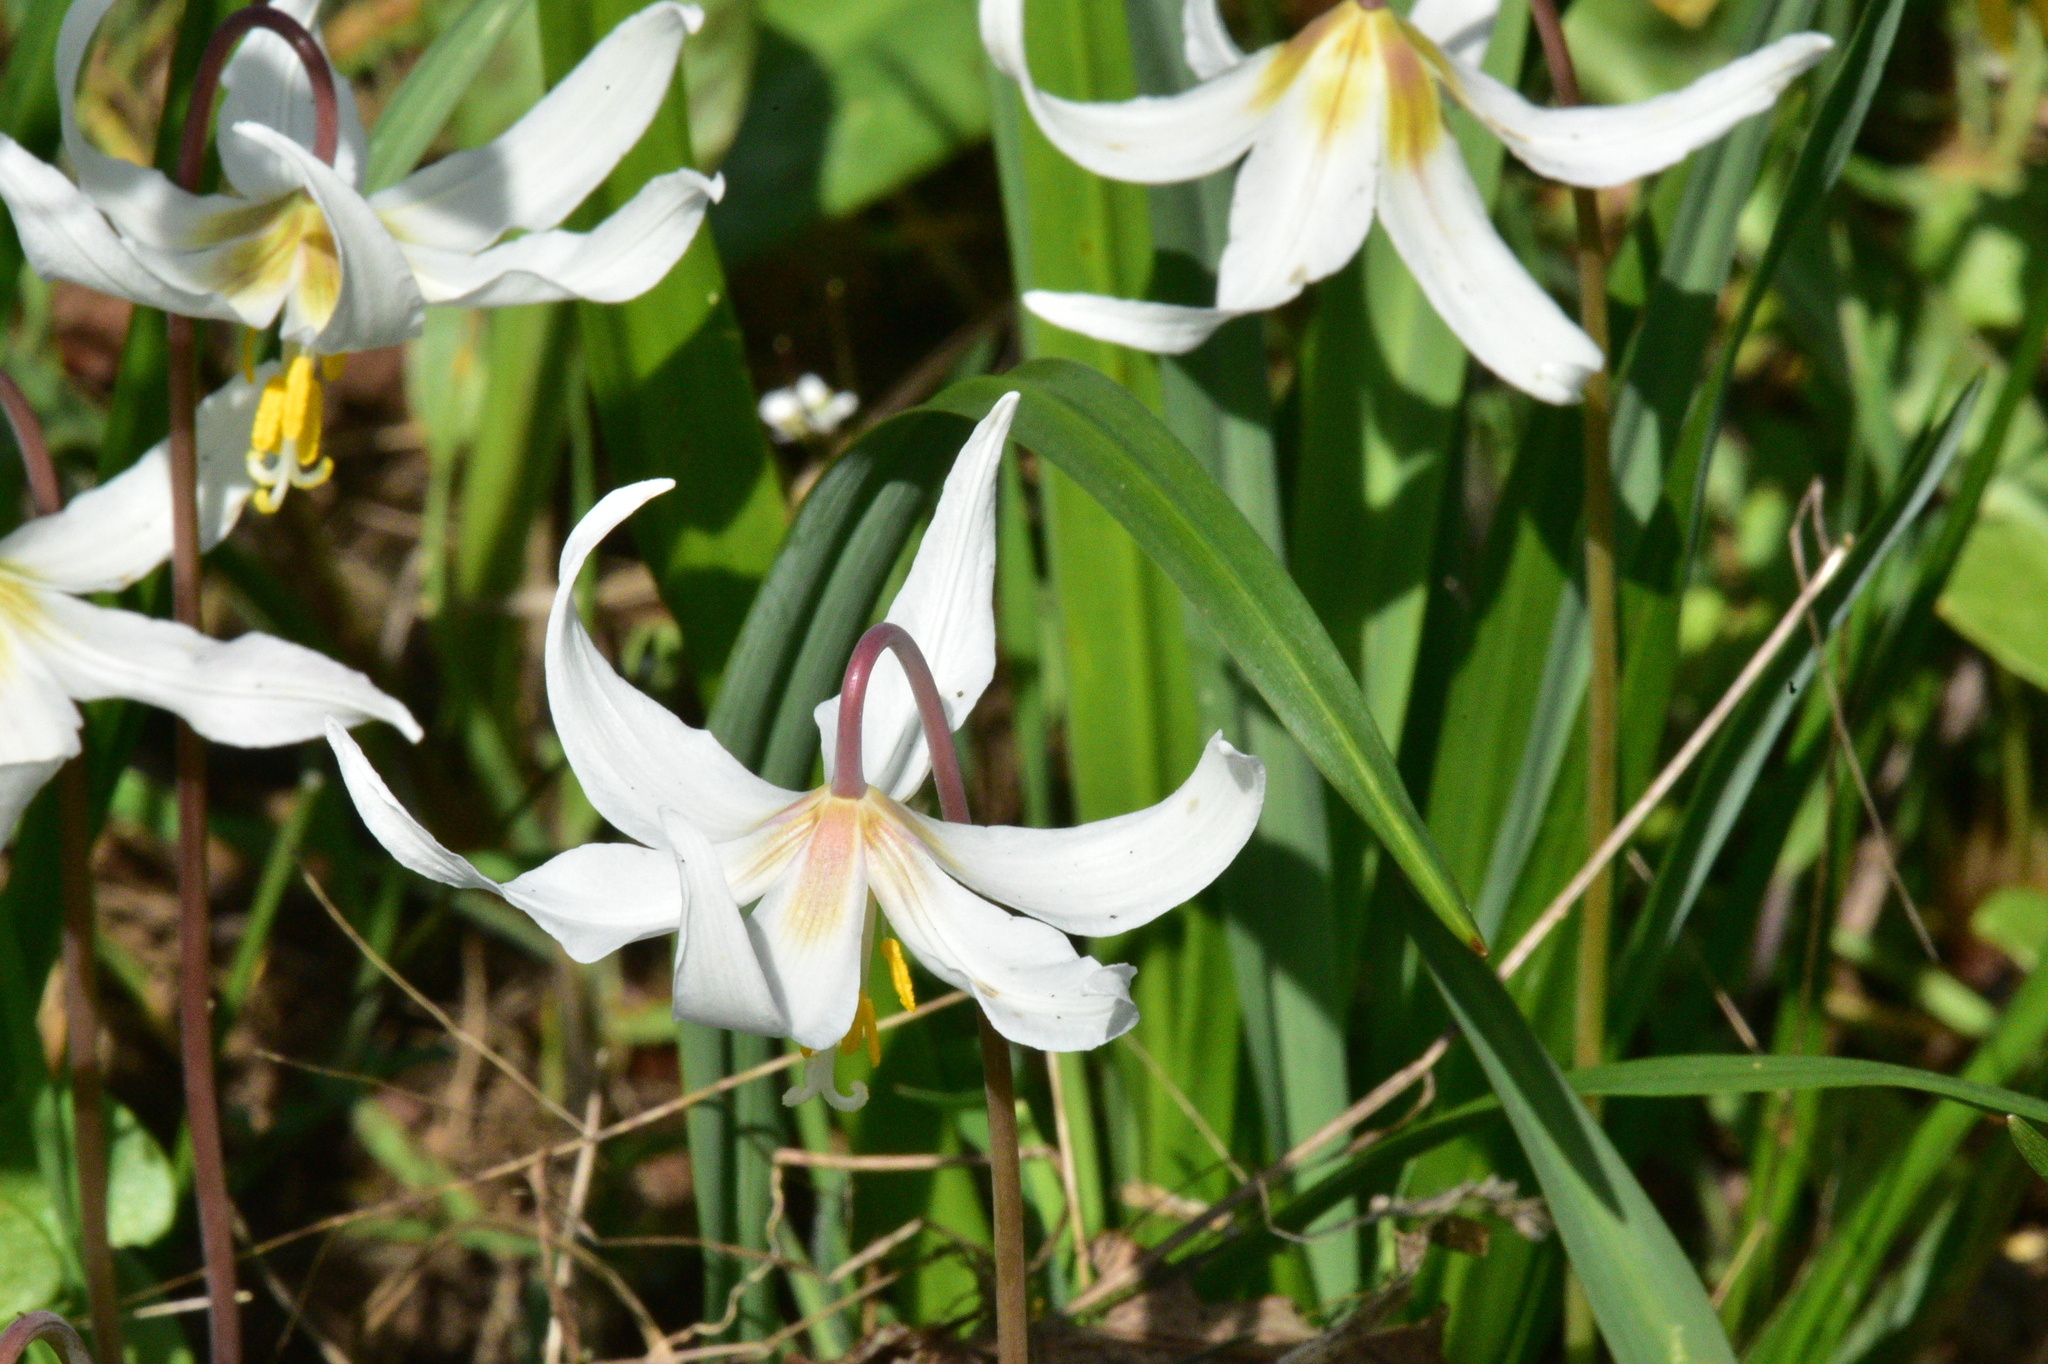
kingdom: Plantae
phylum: Tracheophyta
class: Liliopsida
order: Liliales
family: Liliaceae
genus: Erythronium
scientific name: Erythronium oregonum
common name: Giant adder's-tongue
